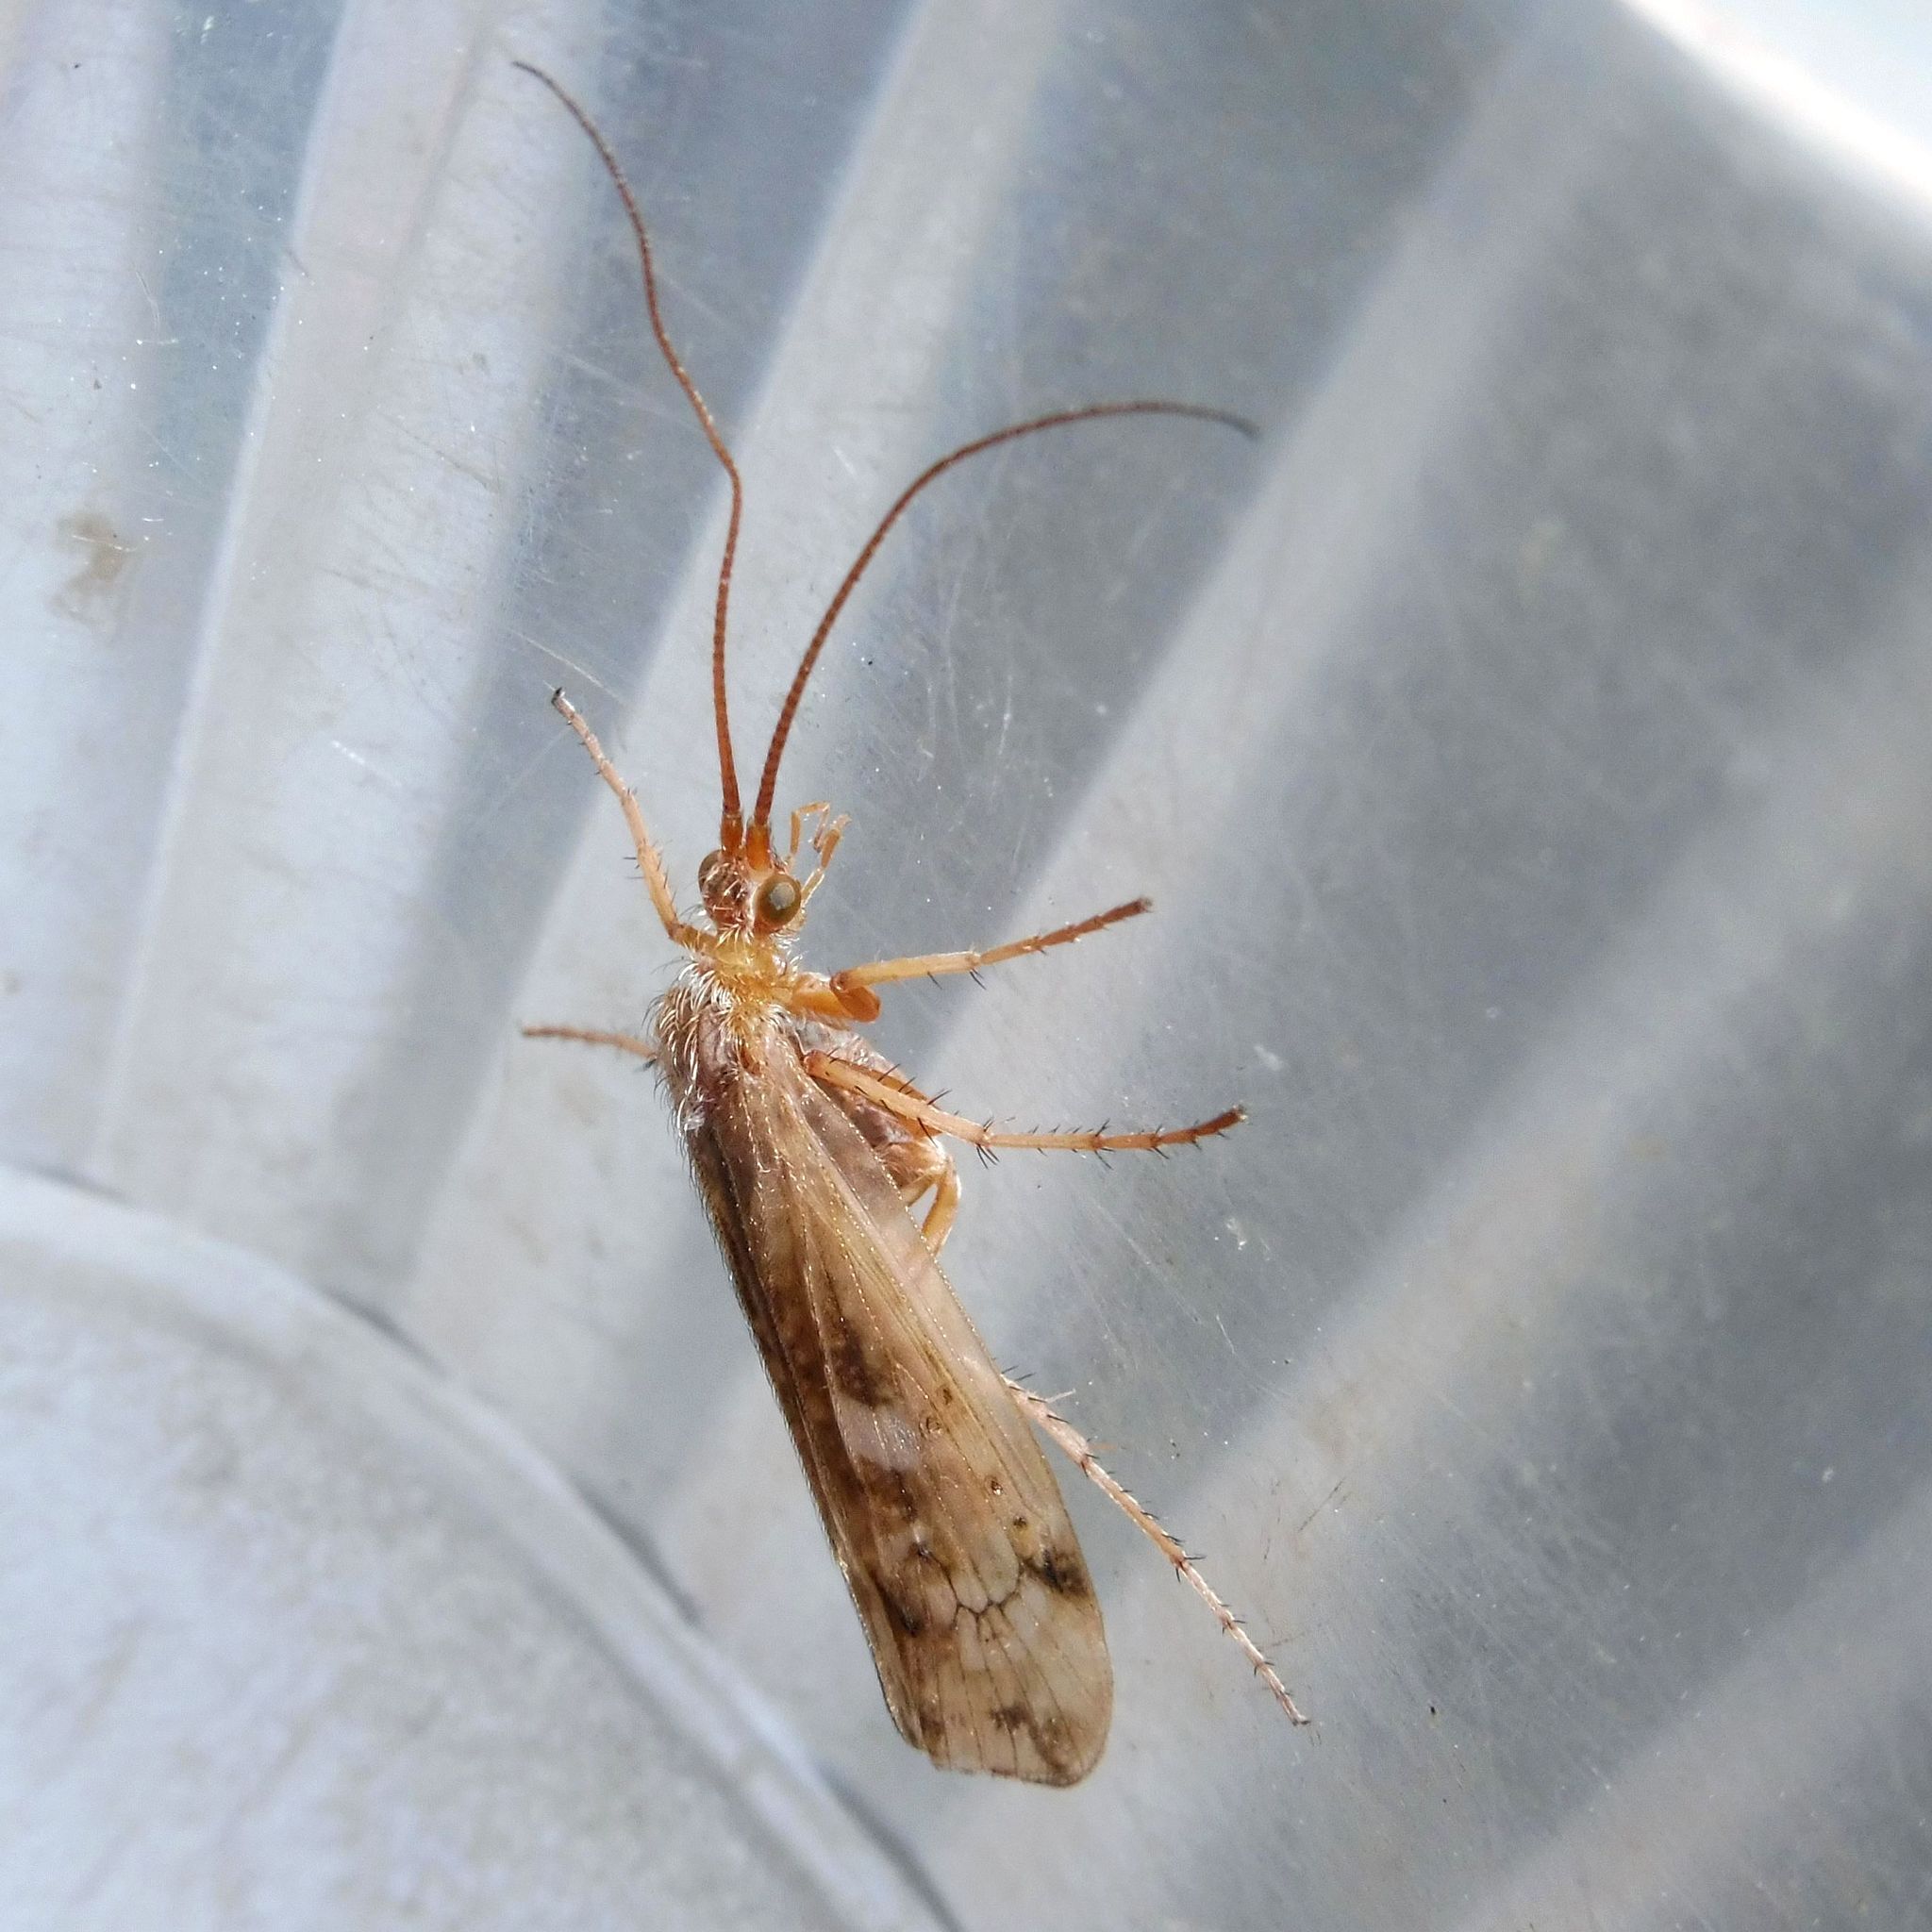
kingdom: Animalia
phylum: Arthropoda
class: Insecta
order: Trichoptera
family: Limnephilidae
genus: Limnephilus
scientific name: Limnephilus decipiens
